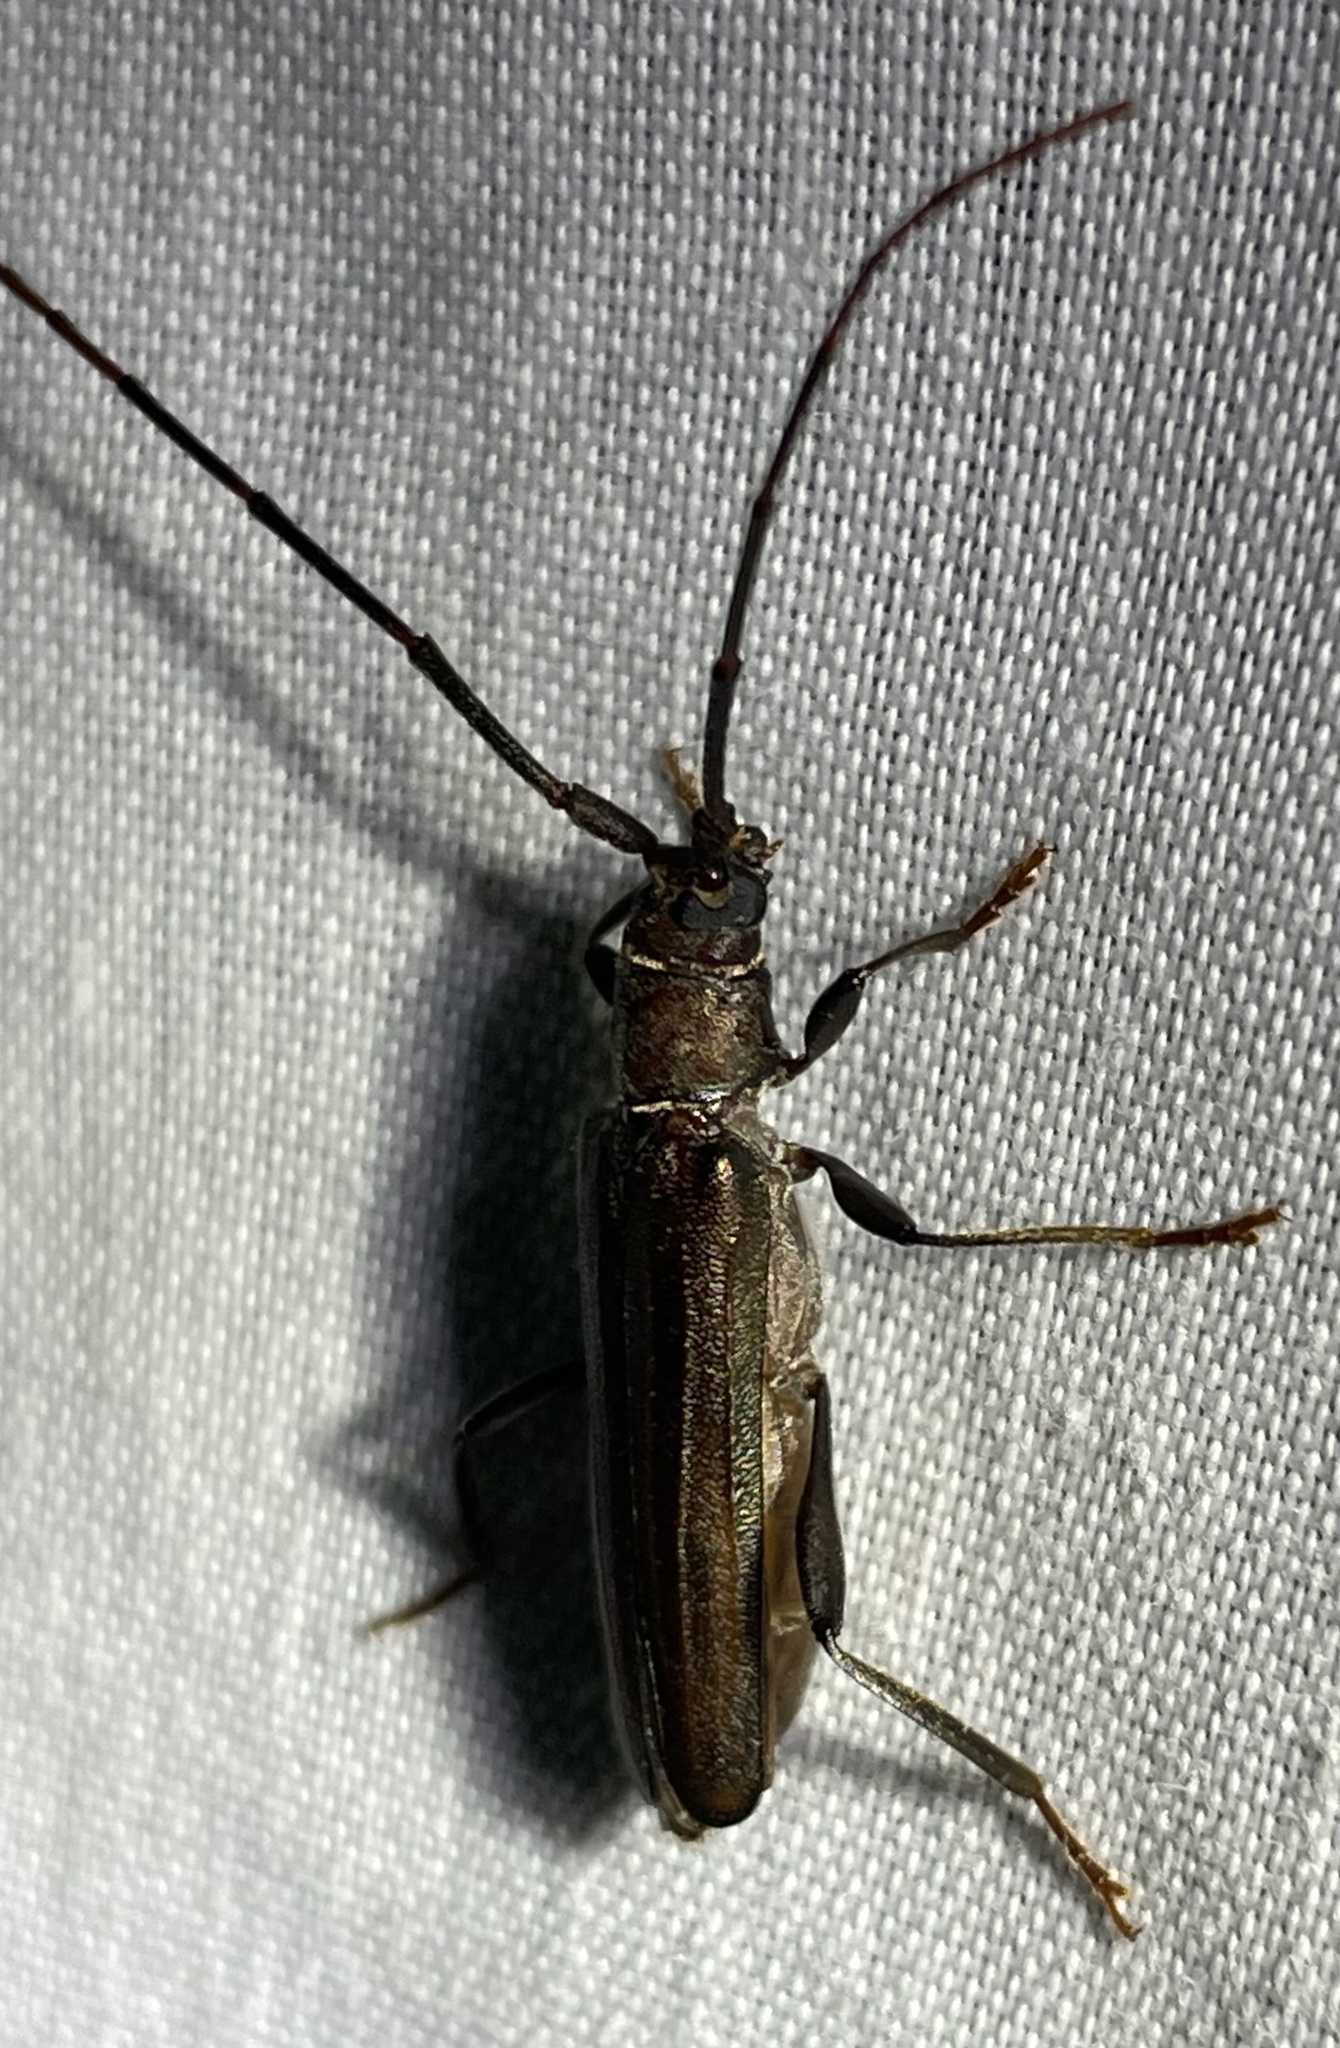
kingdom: Animalia
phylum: Arthropoda
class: Insecta
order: Coleoptera
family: Cerambycidae
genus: Xystrocera
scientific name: Xystrocera erosa
